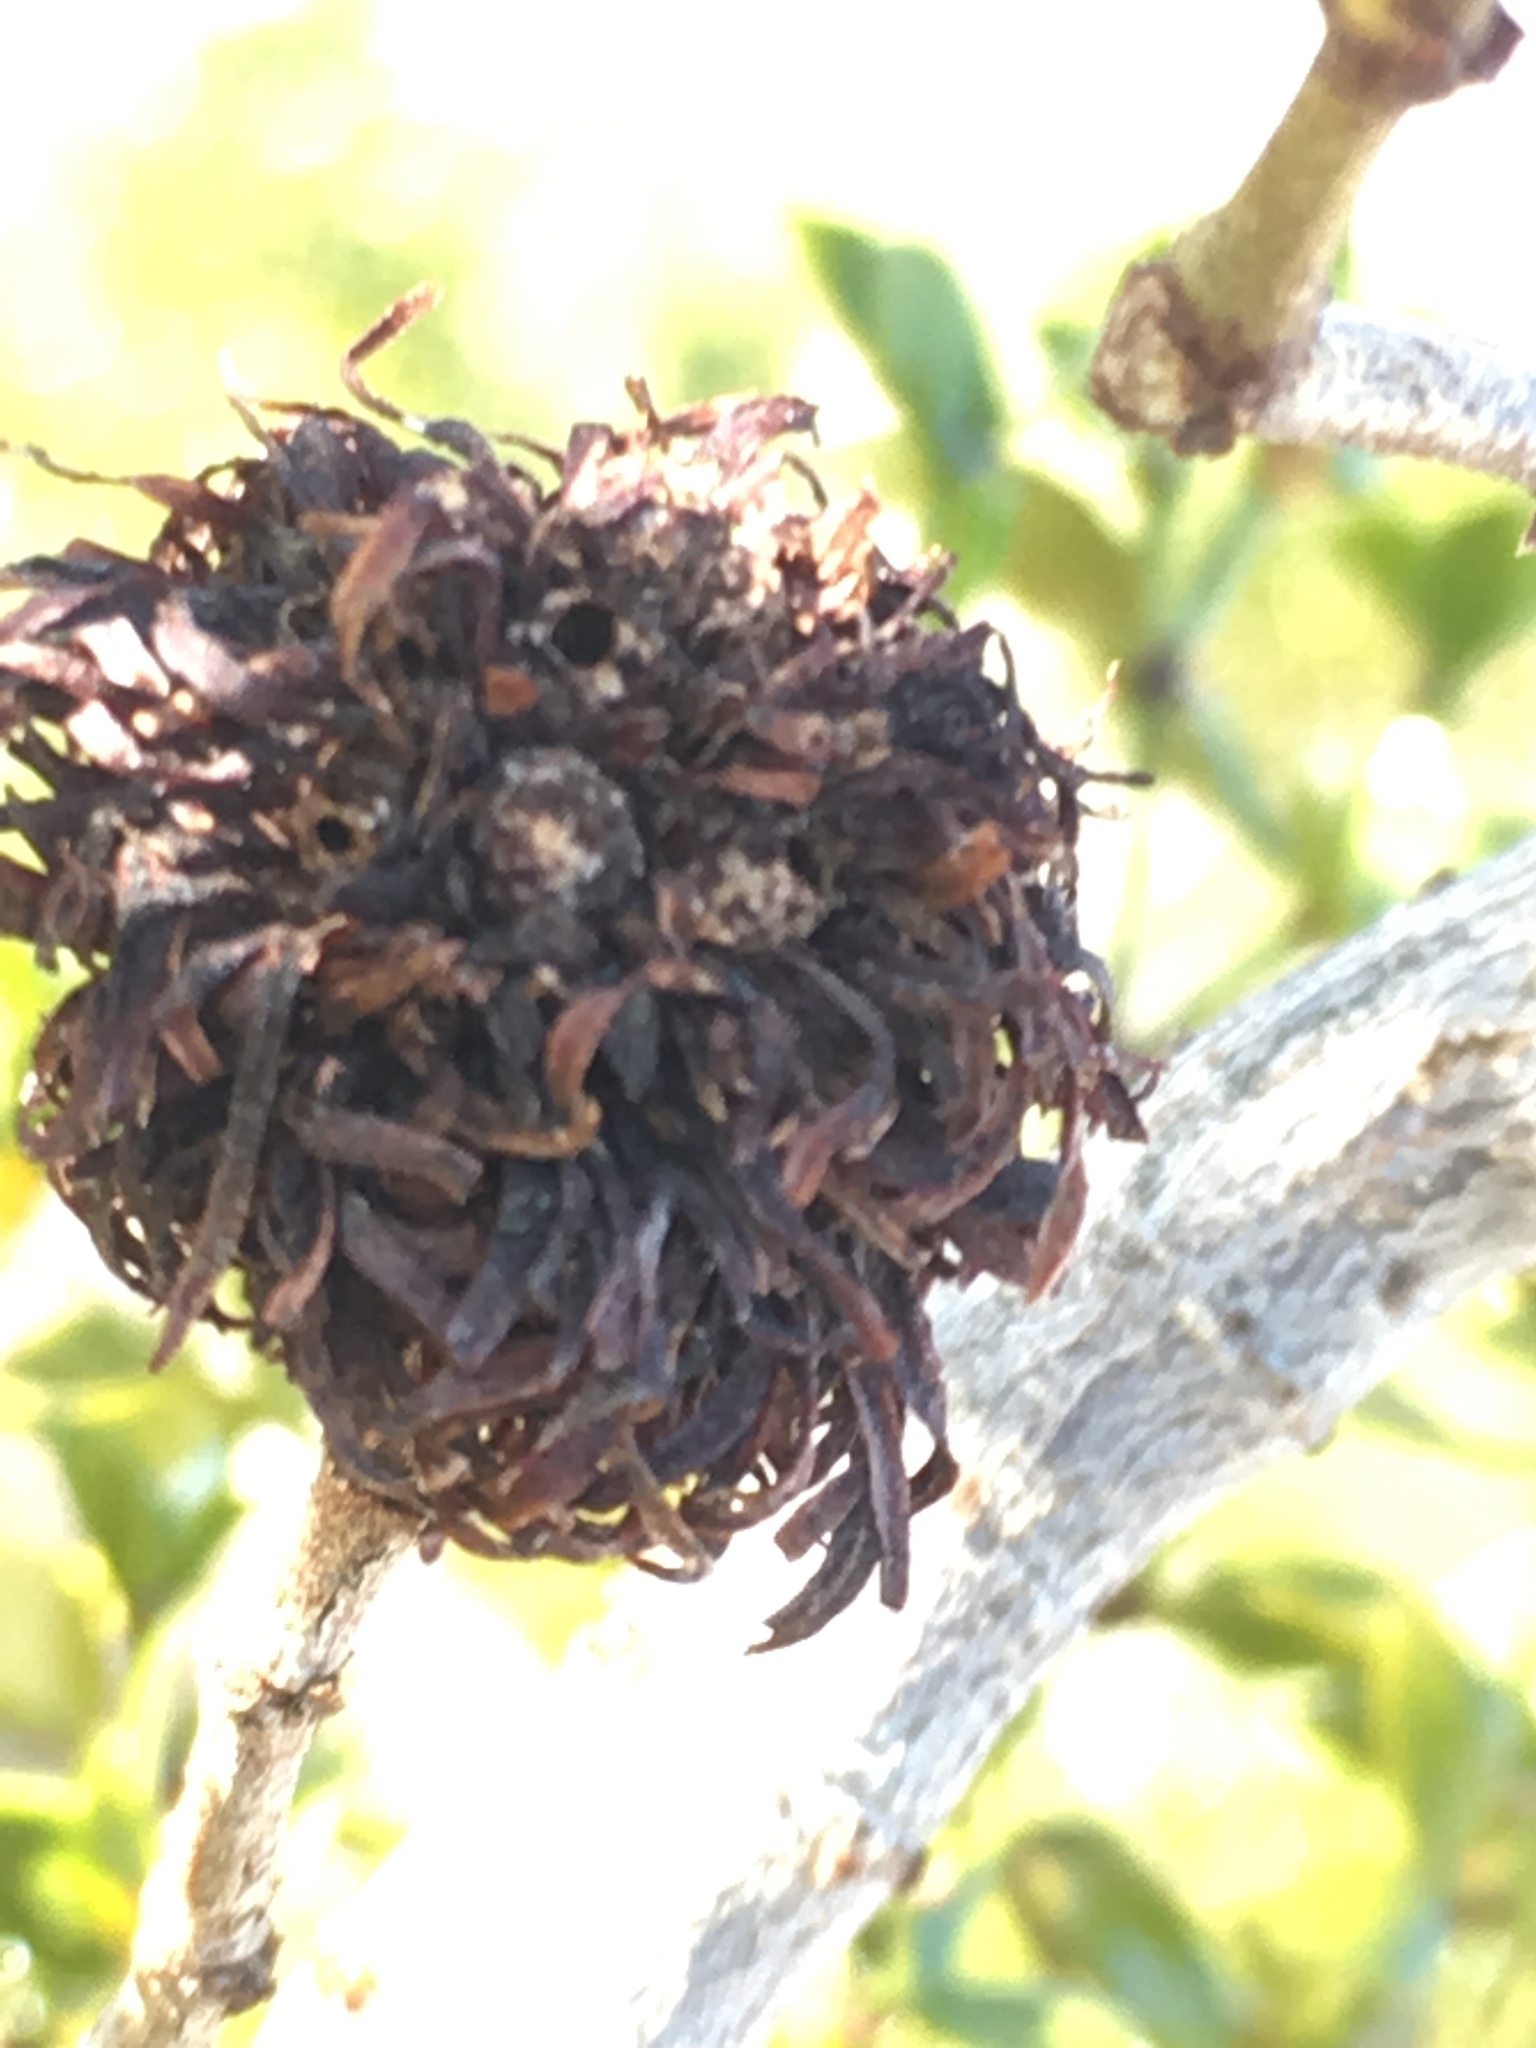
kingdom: Animalia
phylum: Arthropoda
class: Insecta
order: Diptera
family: Cecidomyiidae
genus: Asphondylia
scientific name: Asphondylia auripila
